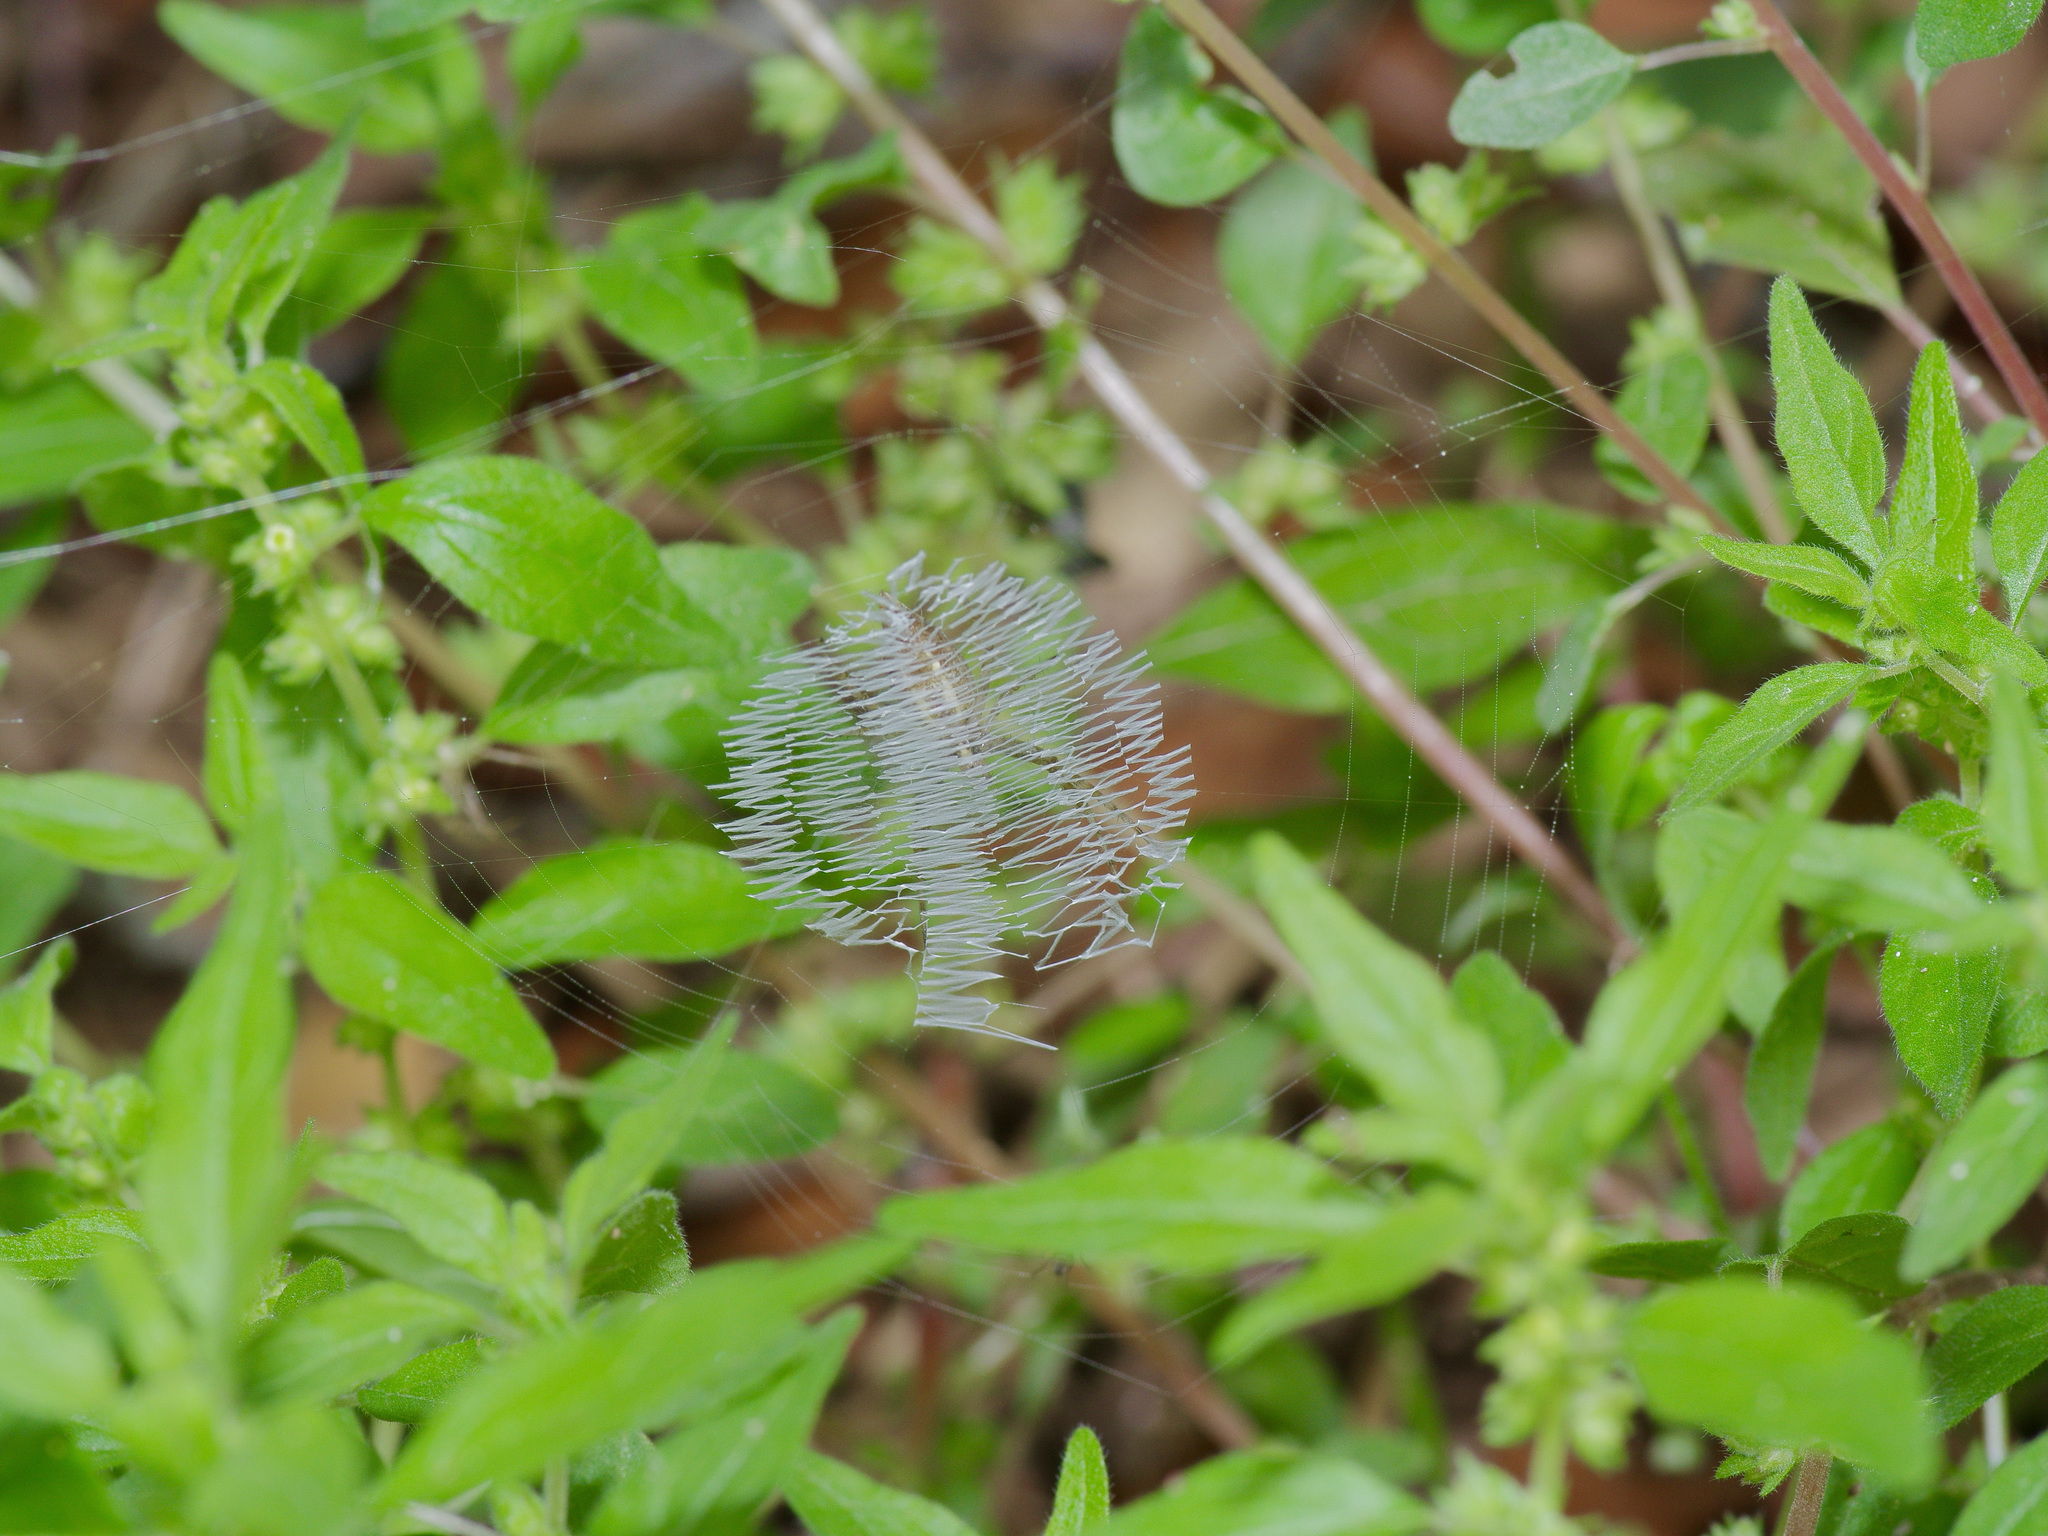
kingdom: Animalia
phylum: Arthropoda
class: Arachnida
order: Araneae
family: Araneidae
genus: Argiope
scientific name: Argiope aurantia
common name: Orb weavers
